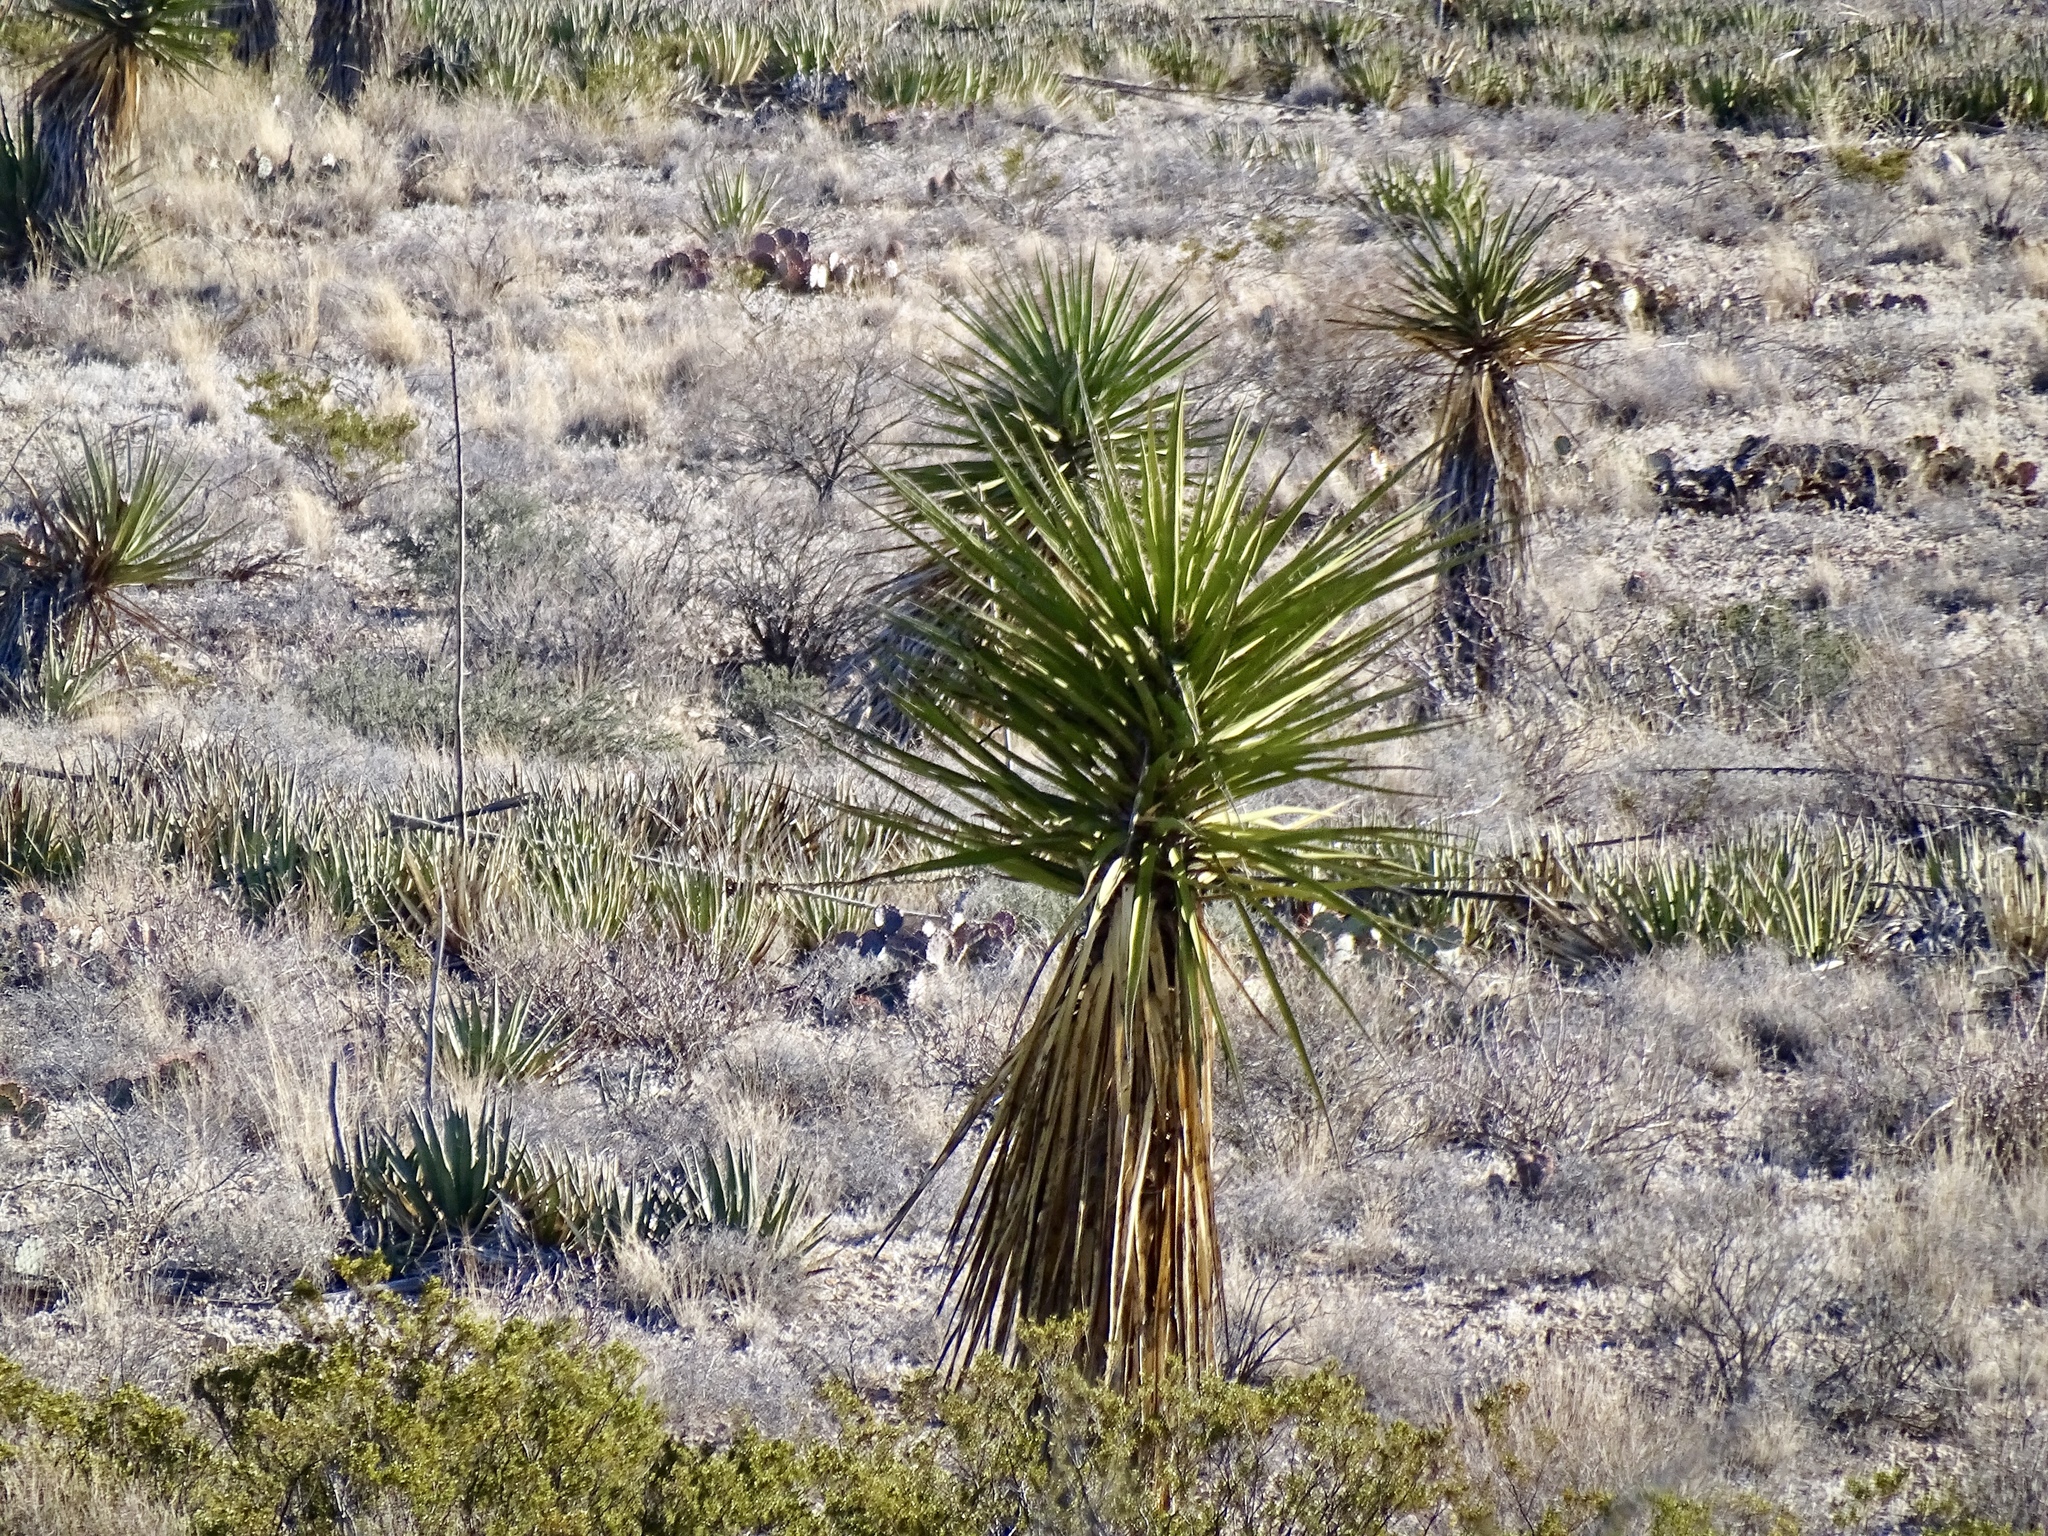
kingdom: Plantae
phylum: Tracheophyta
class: Liliopsida
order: Asparagales
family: Asparagaceae
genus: Yucca
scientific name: Yucca treculiana
